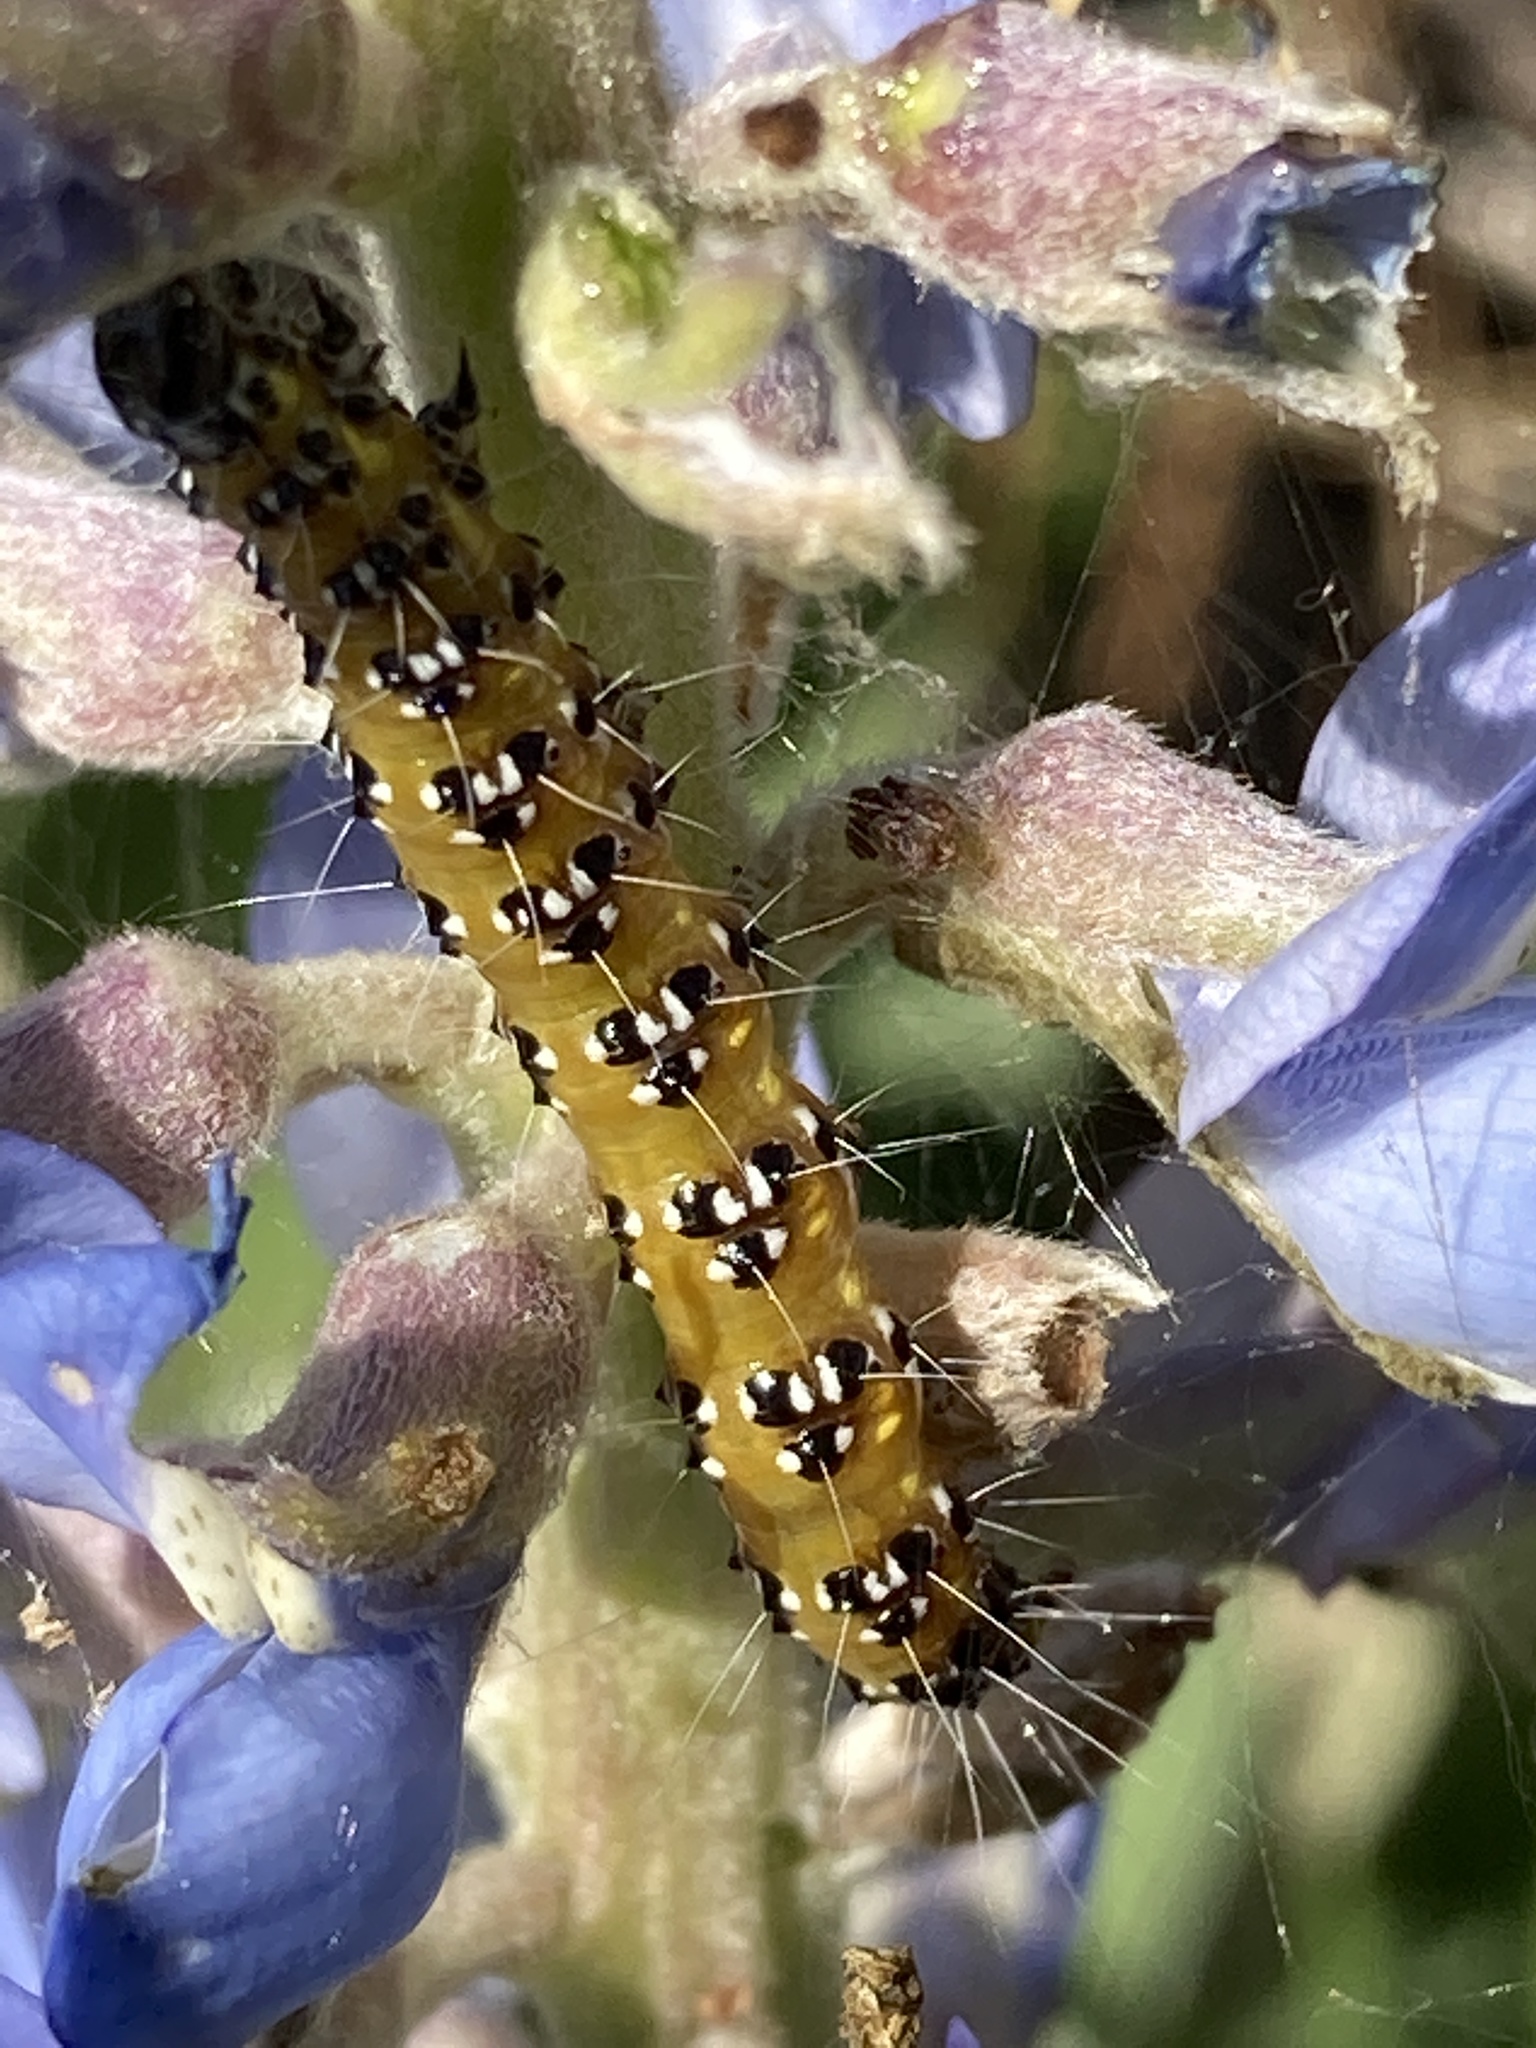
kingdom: Animalia
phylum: Arthropoda
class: Insecta
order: Lepidoptera
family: Crambidae
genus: Uresiphita
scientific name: Uresiphita reversalis
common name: Genista broom moth
